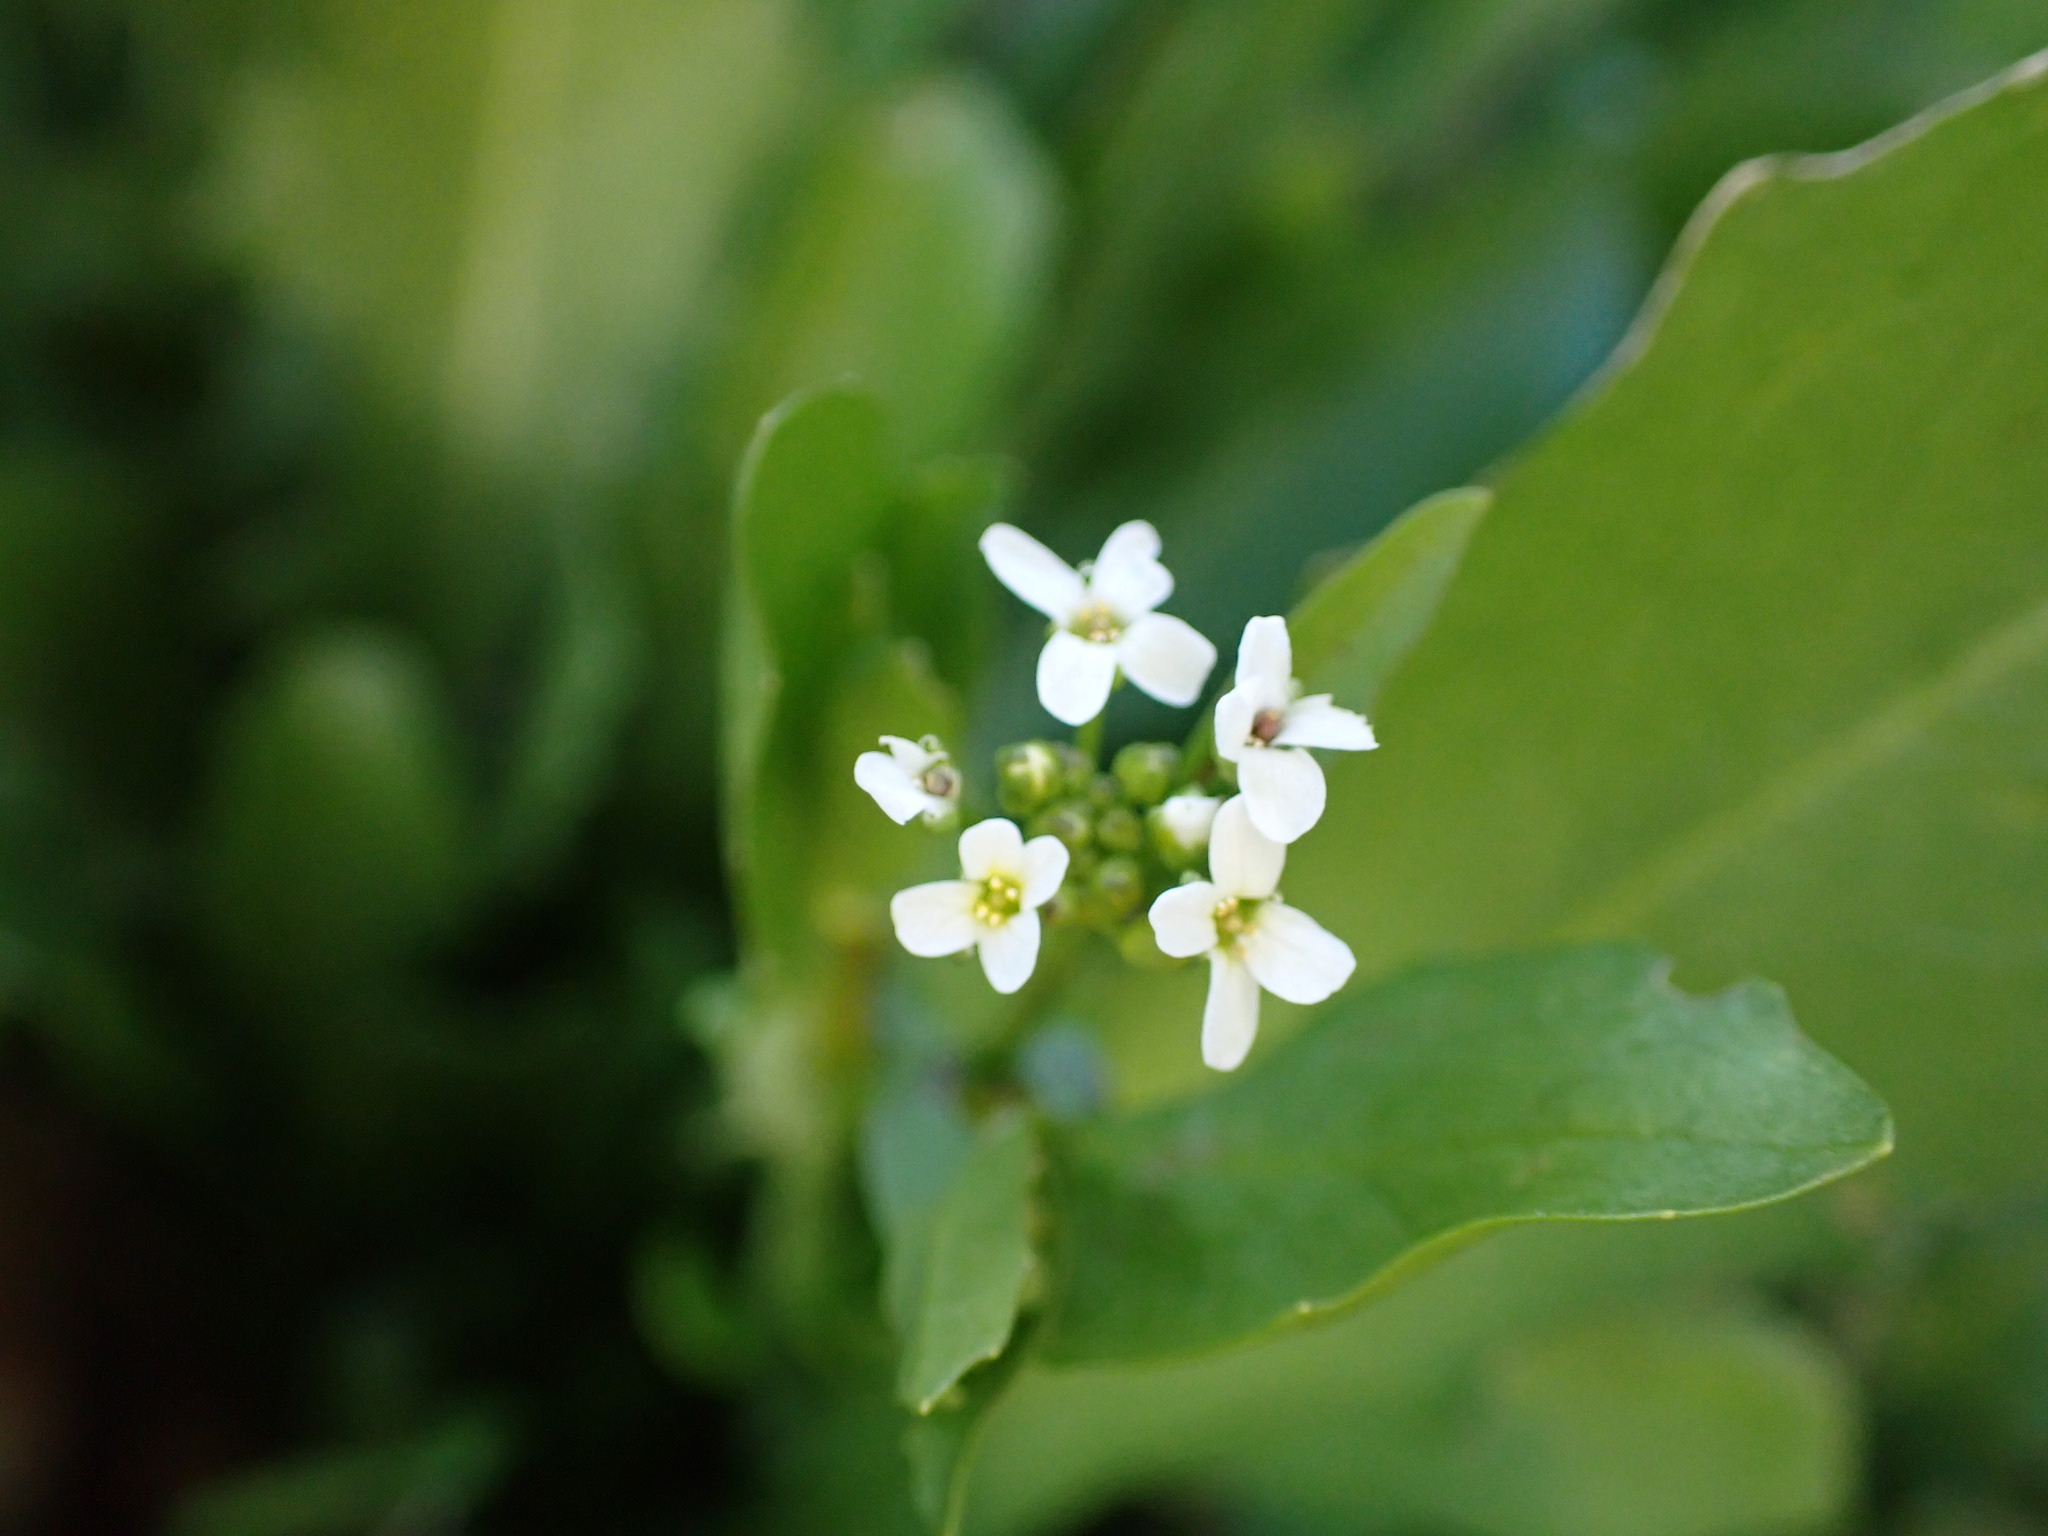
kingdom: Plantae
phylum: Tracheophyta
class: Magnoliopsida
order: Brassicales
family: Brassicaceae
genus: Calepina
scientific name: Calepina irregularis
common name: White ballmustard
